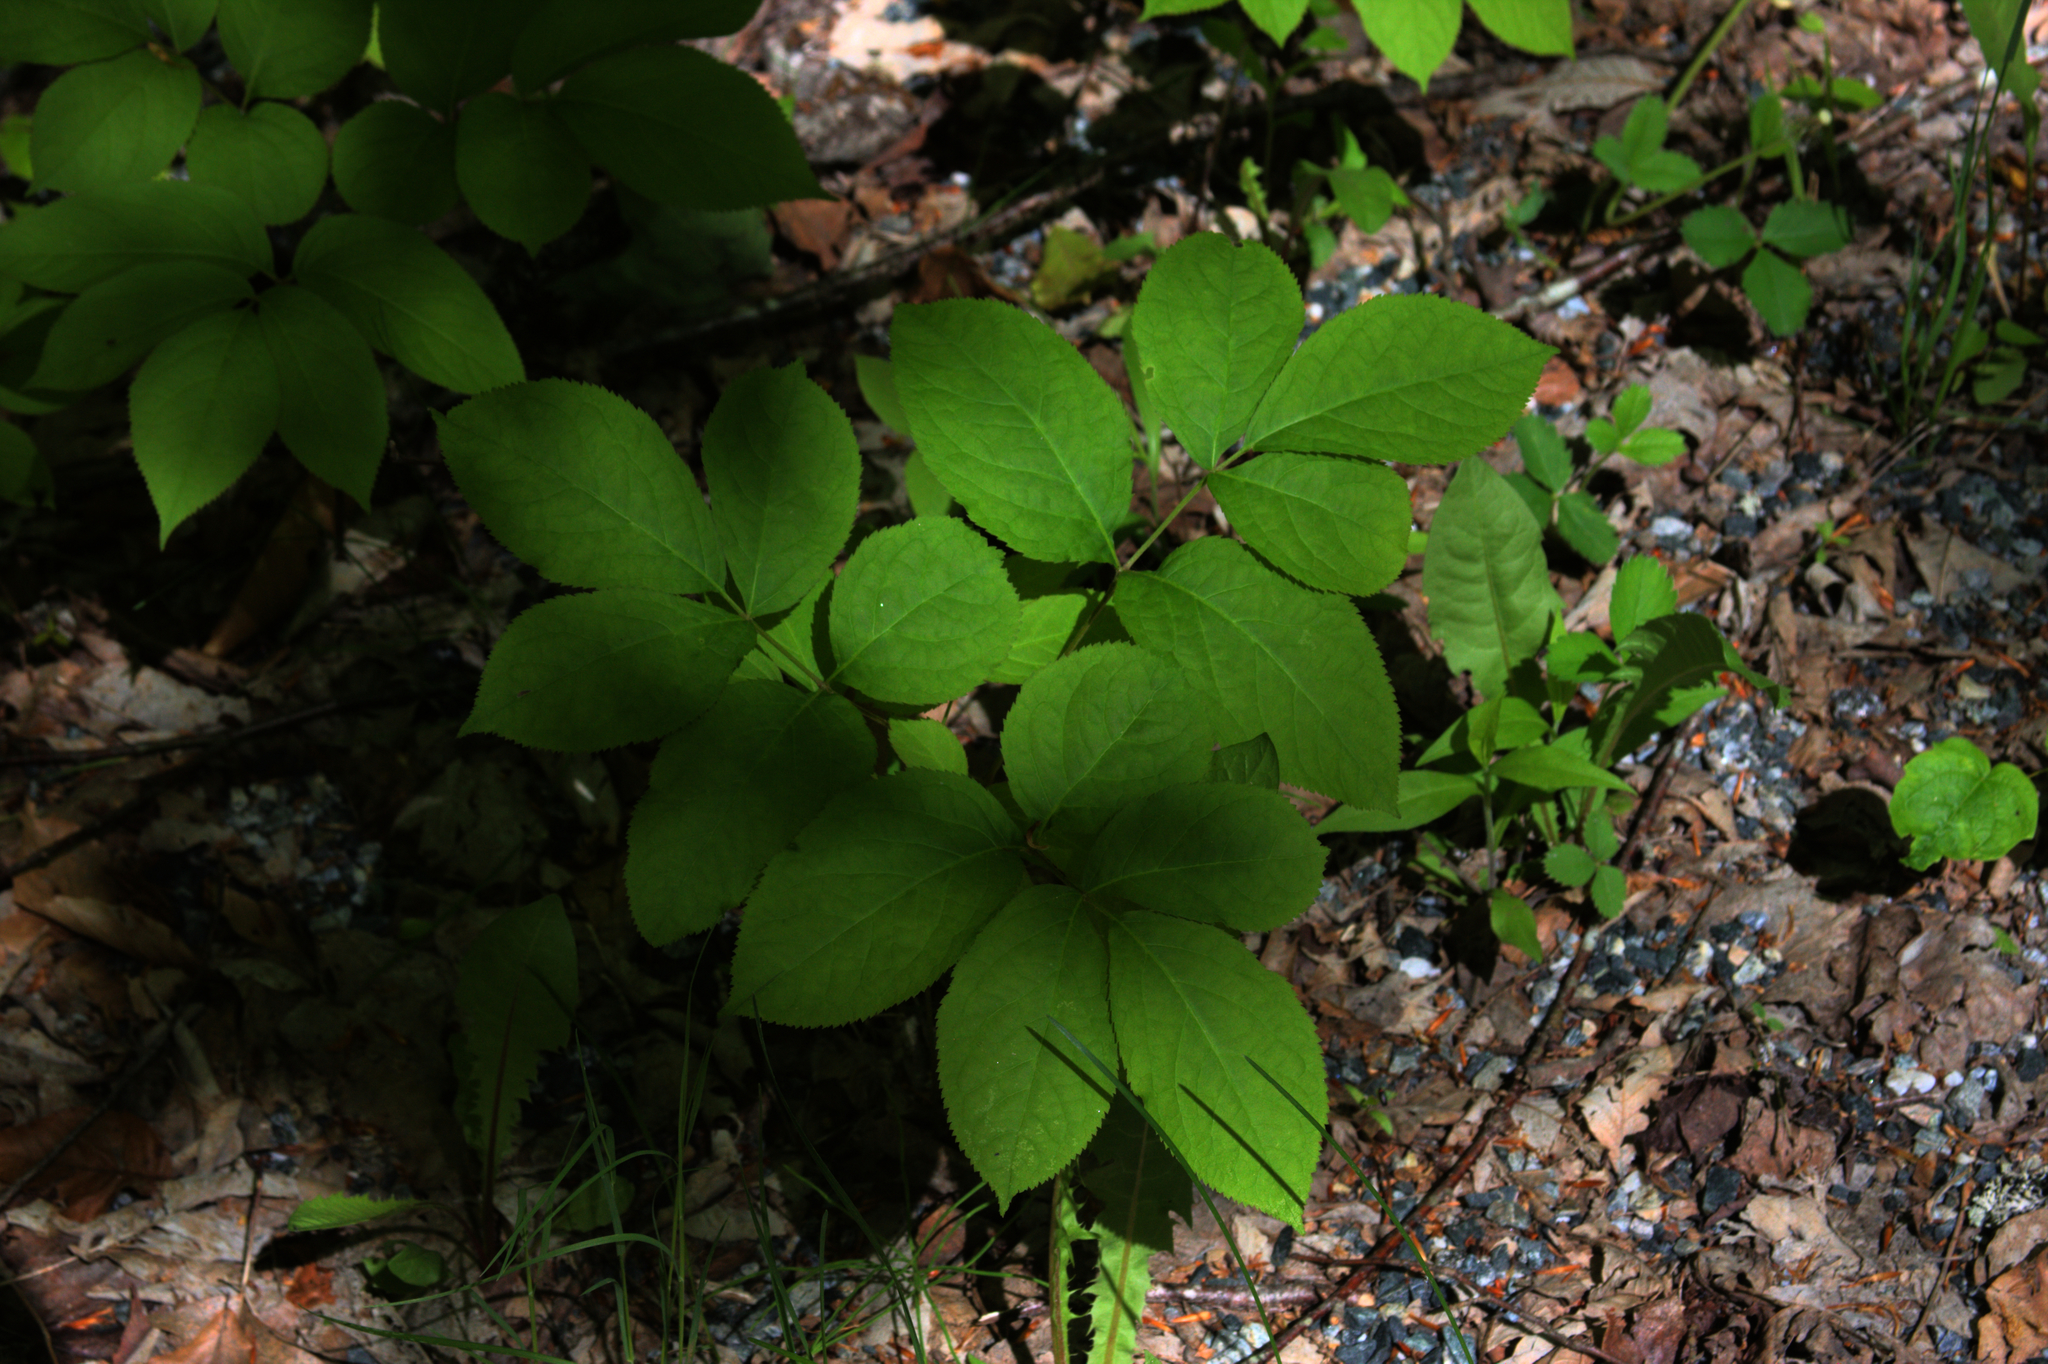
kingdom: Plantae
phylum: Tracheophyta
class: Magnoliopsida
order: Apiales
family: Araliaceae
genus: Aralia
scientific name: Aralia nudicaulis
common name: Wild sarsaparilla
